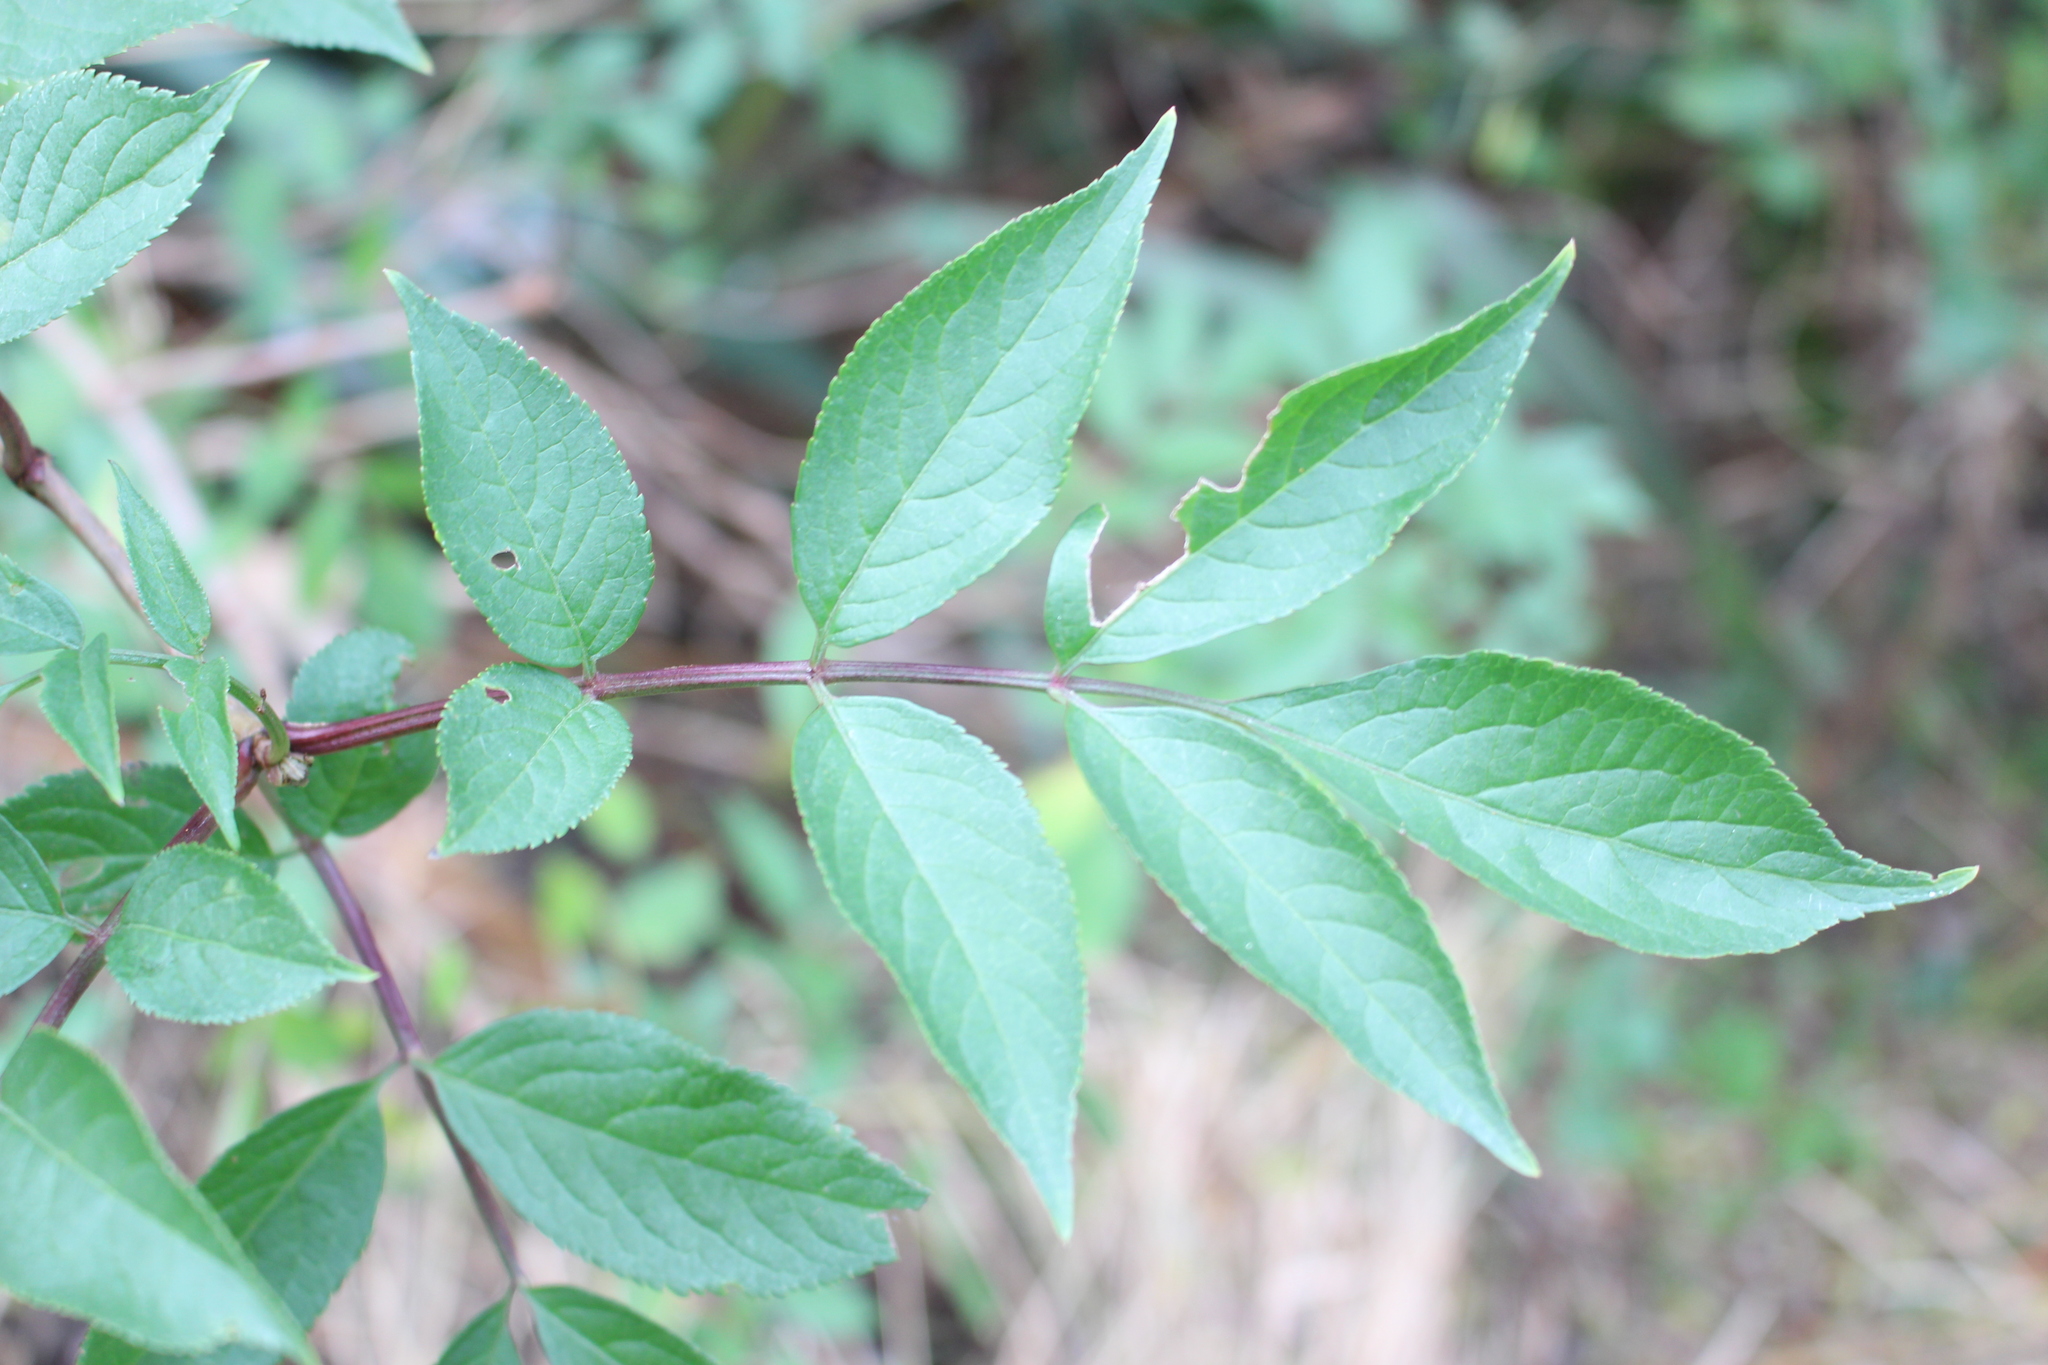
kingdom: Plantae
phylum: Tracheophyta
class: Magnoliopsida
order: Dipsacales
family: Viburnaceae
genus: Sambucus
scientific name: Sambucus nigra
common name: Elder
